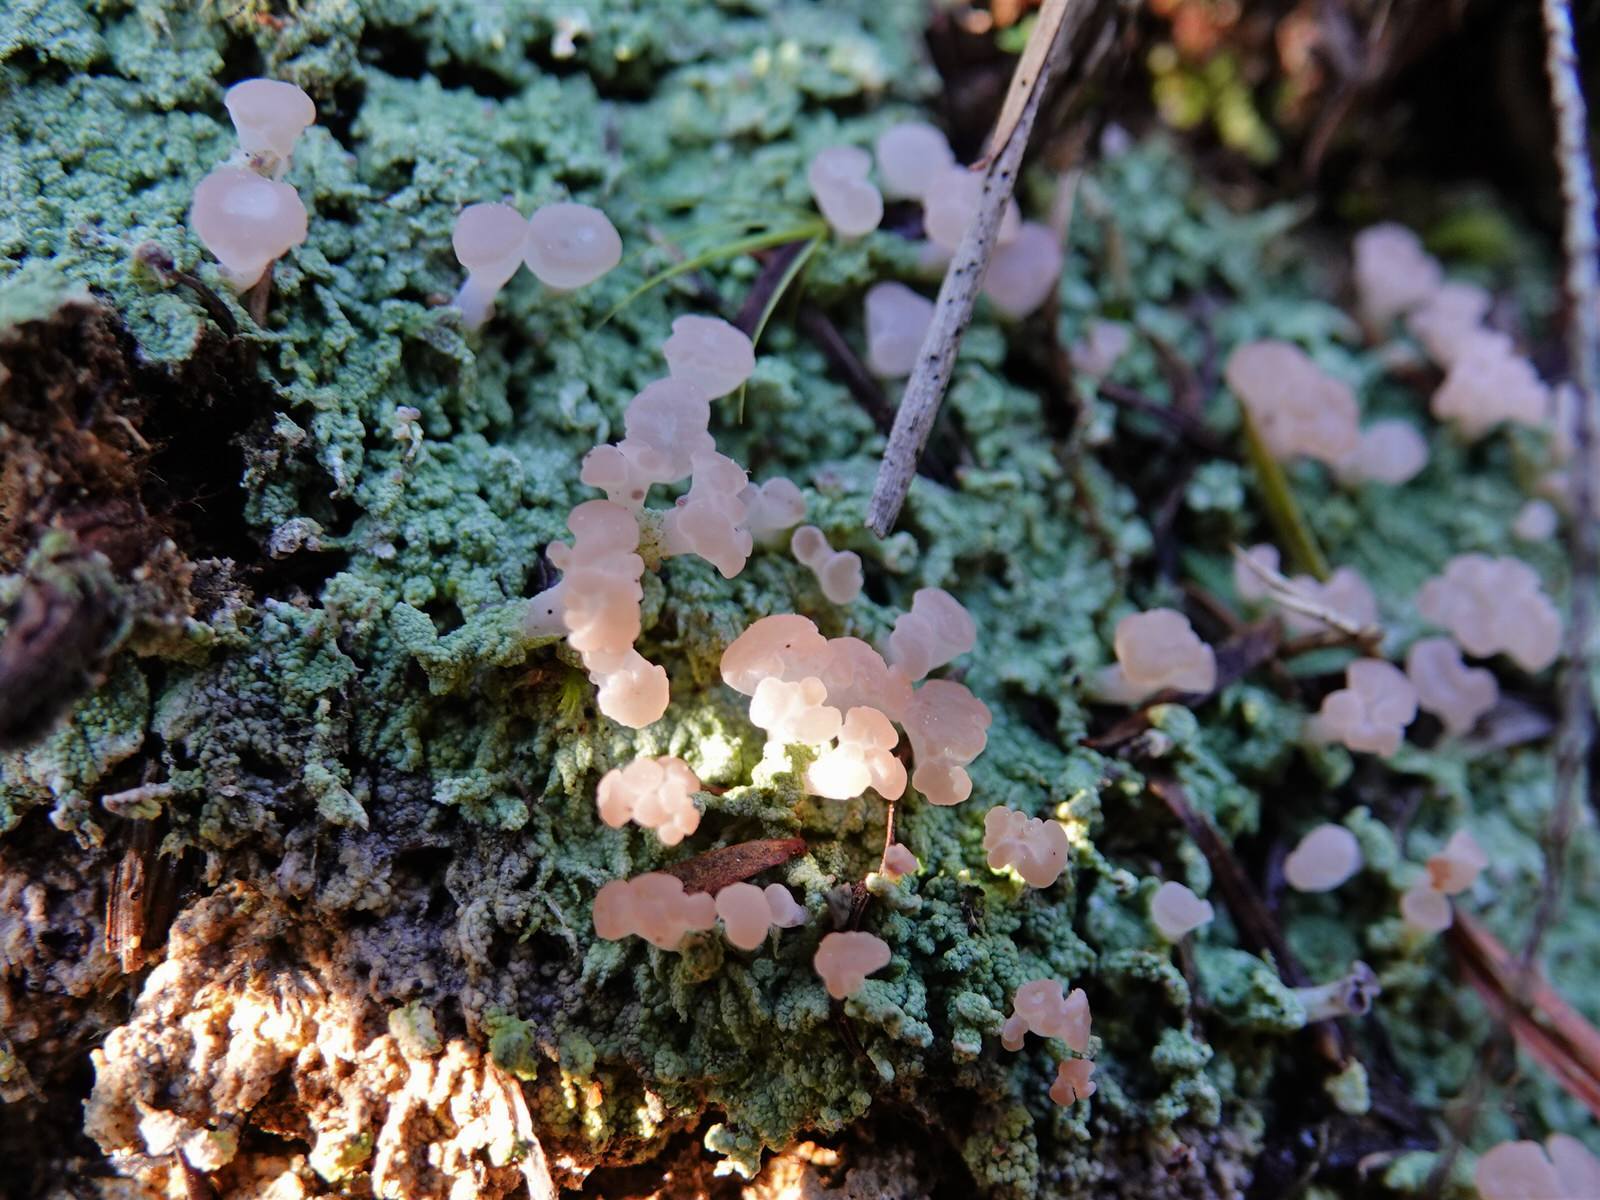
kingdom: Fungi
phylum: Ascomycota
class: Lecanoromycetes
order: Baeomycetales
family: Baeomycetaceae
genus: Baeomyces
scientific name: Baeomyces heteromorphus
